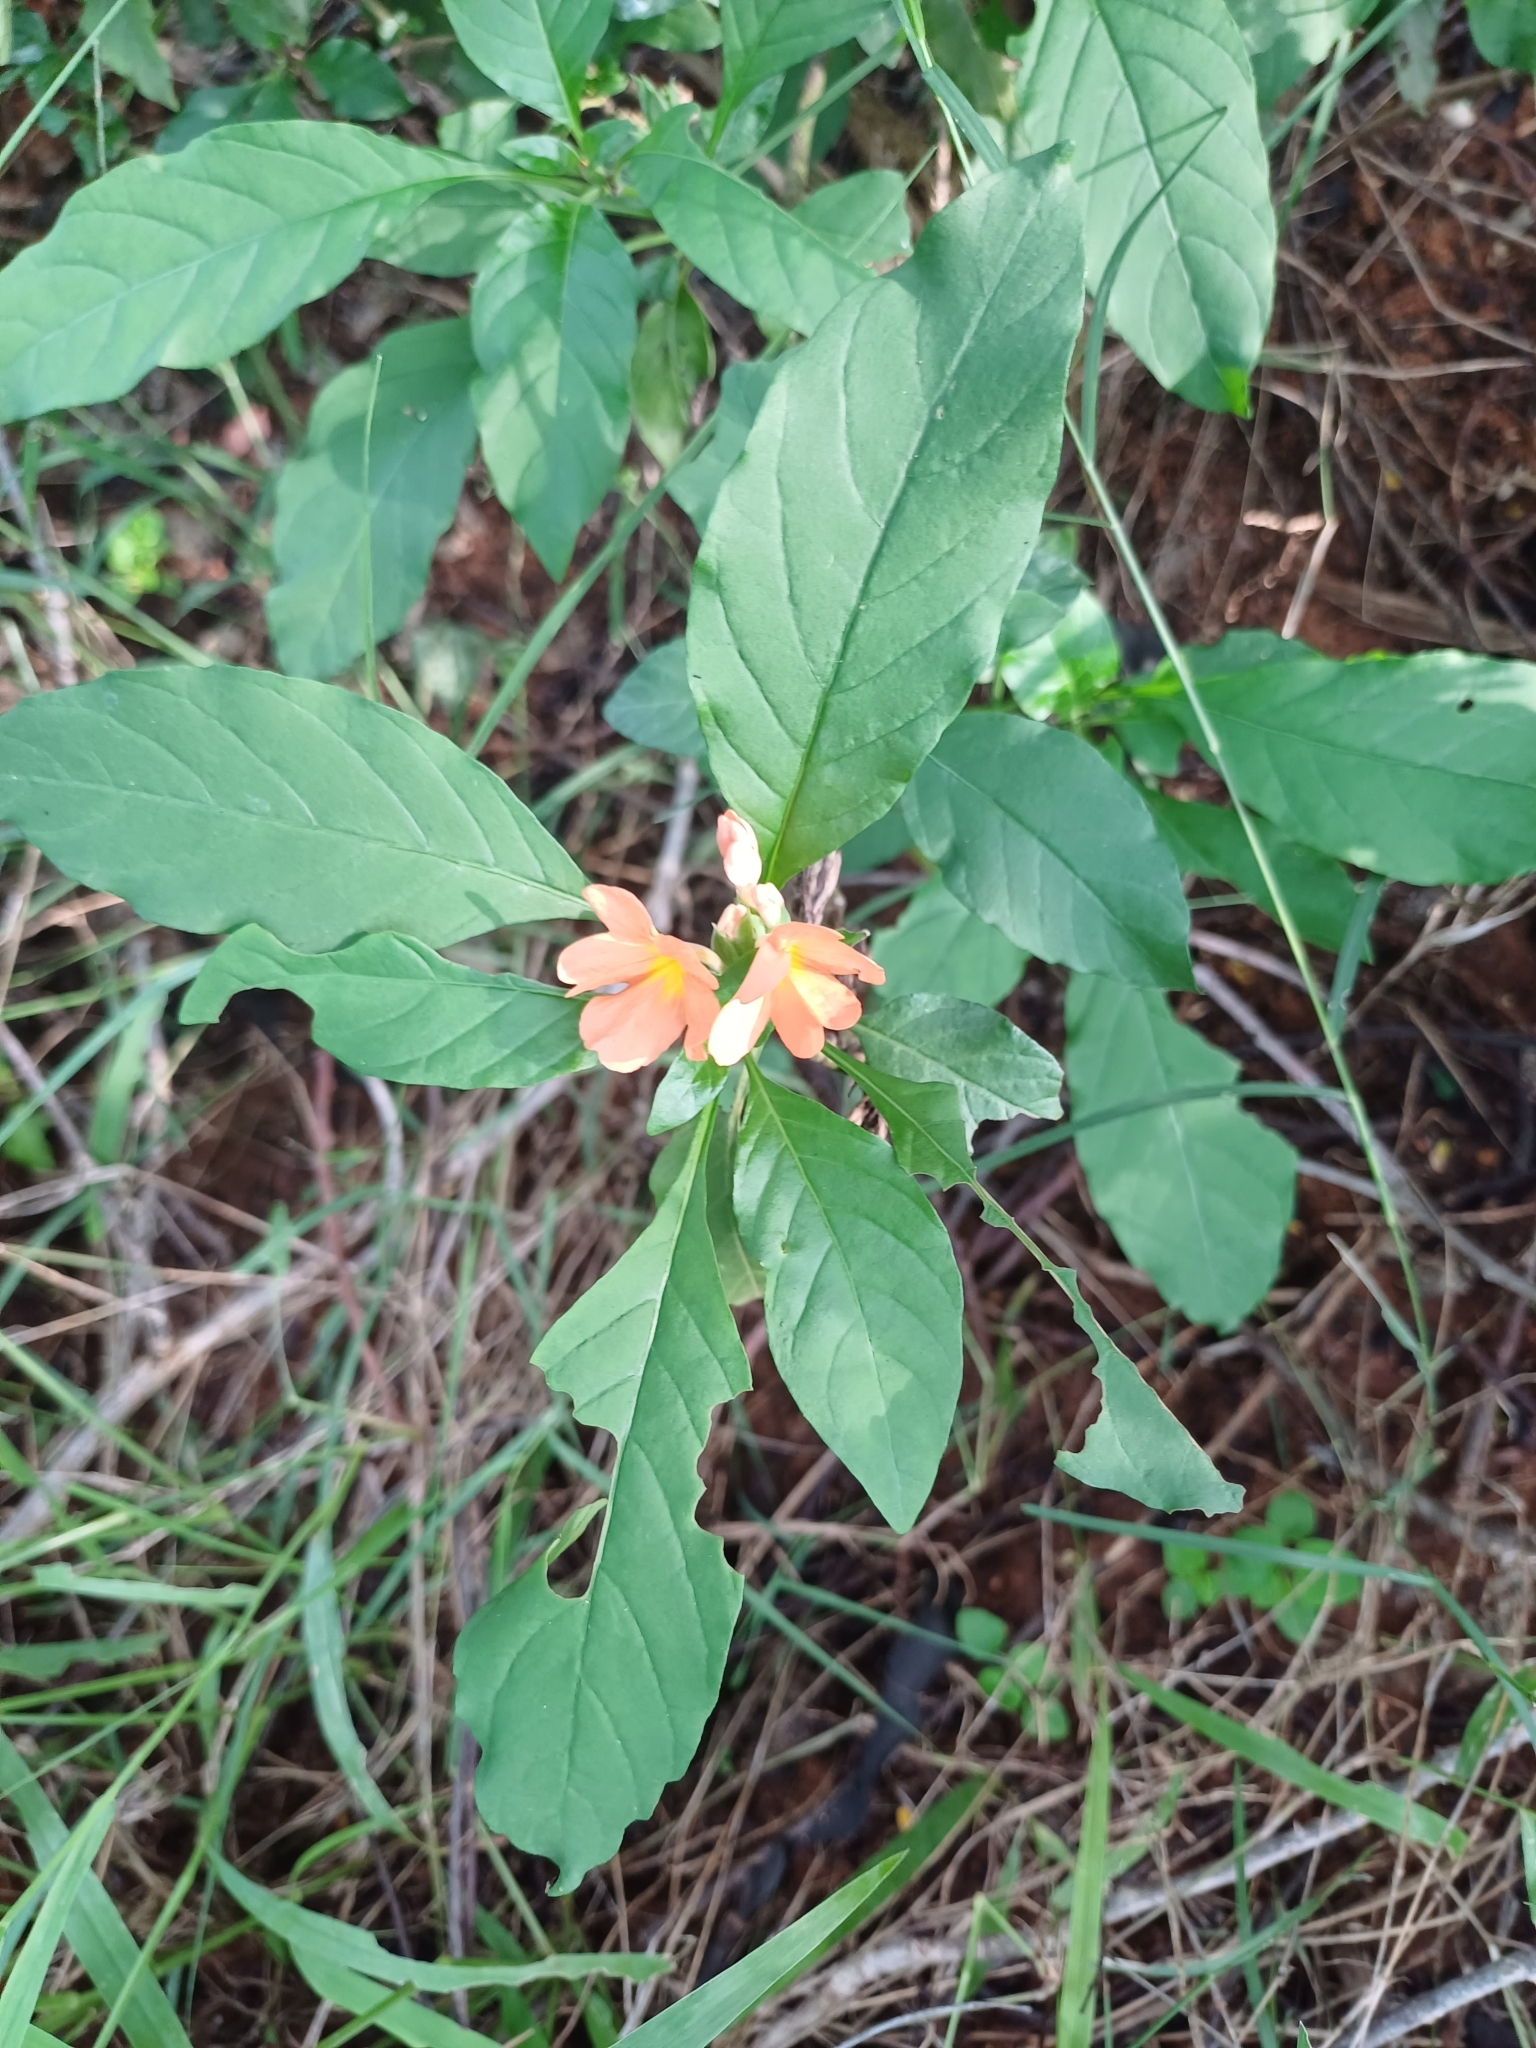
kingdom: Plantae
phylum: Tracheophyta
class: Magnoliopsida
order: Lamiales
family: Acanthaceae
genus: Crossandra
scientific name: Crossandra infundibuliformis
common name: Firecracker-flower
